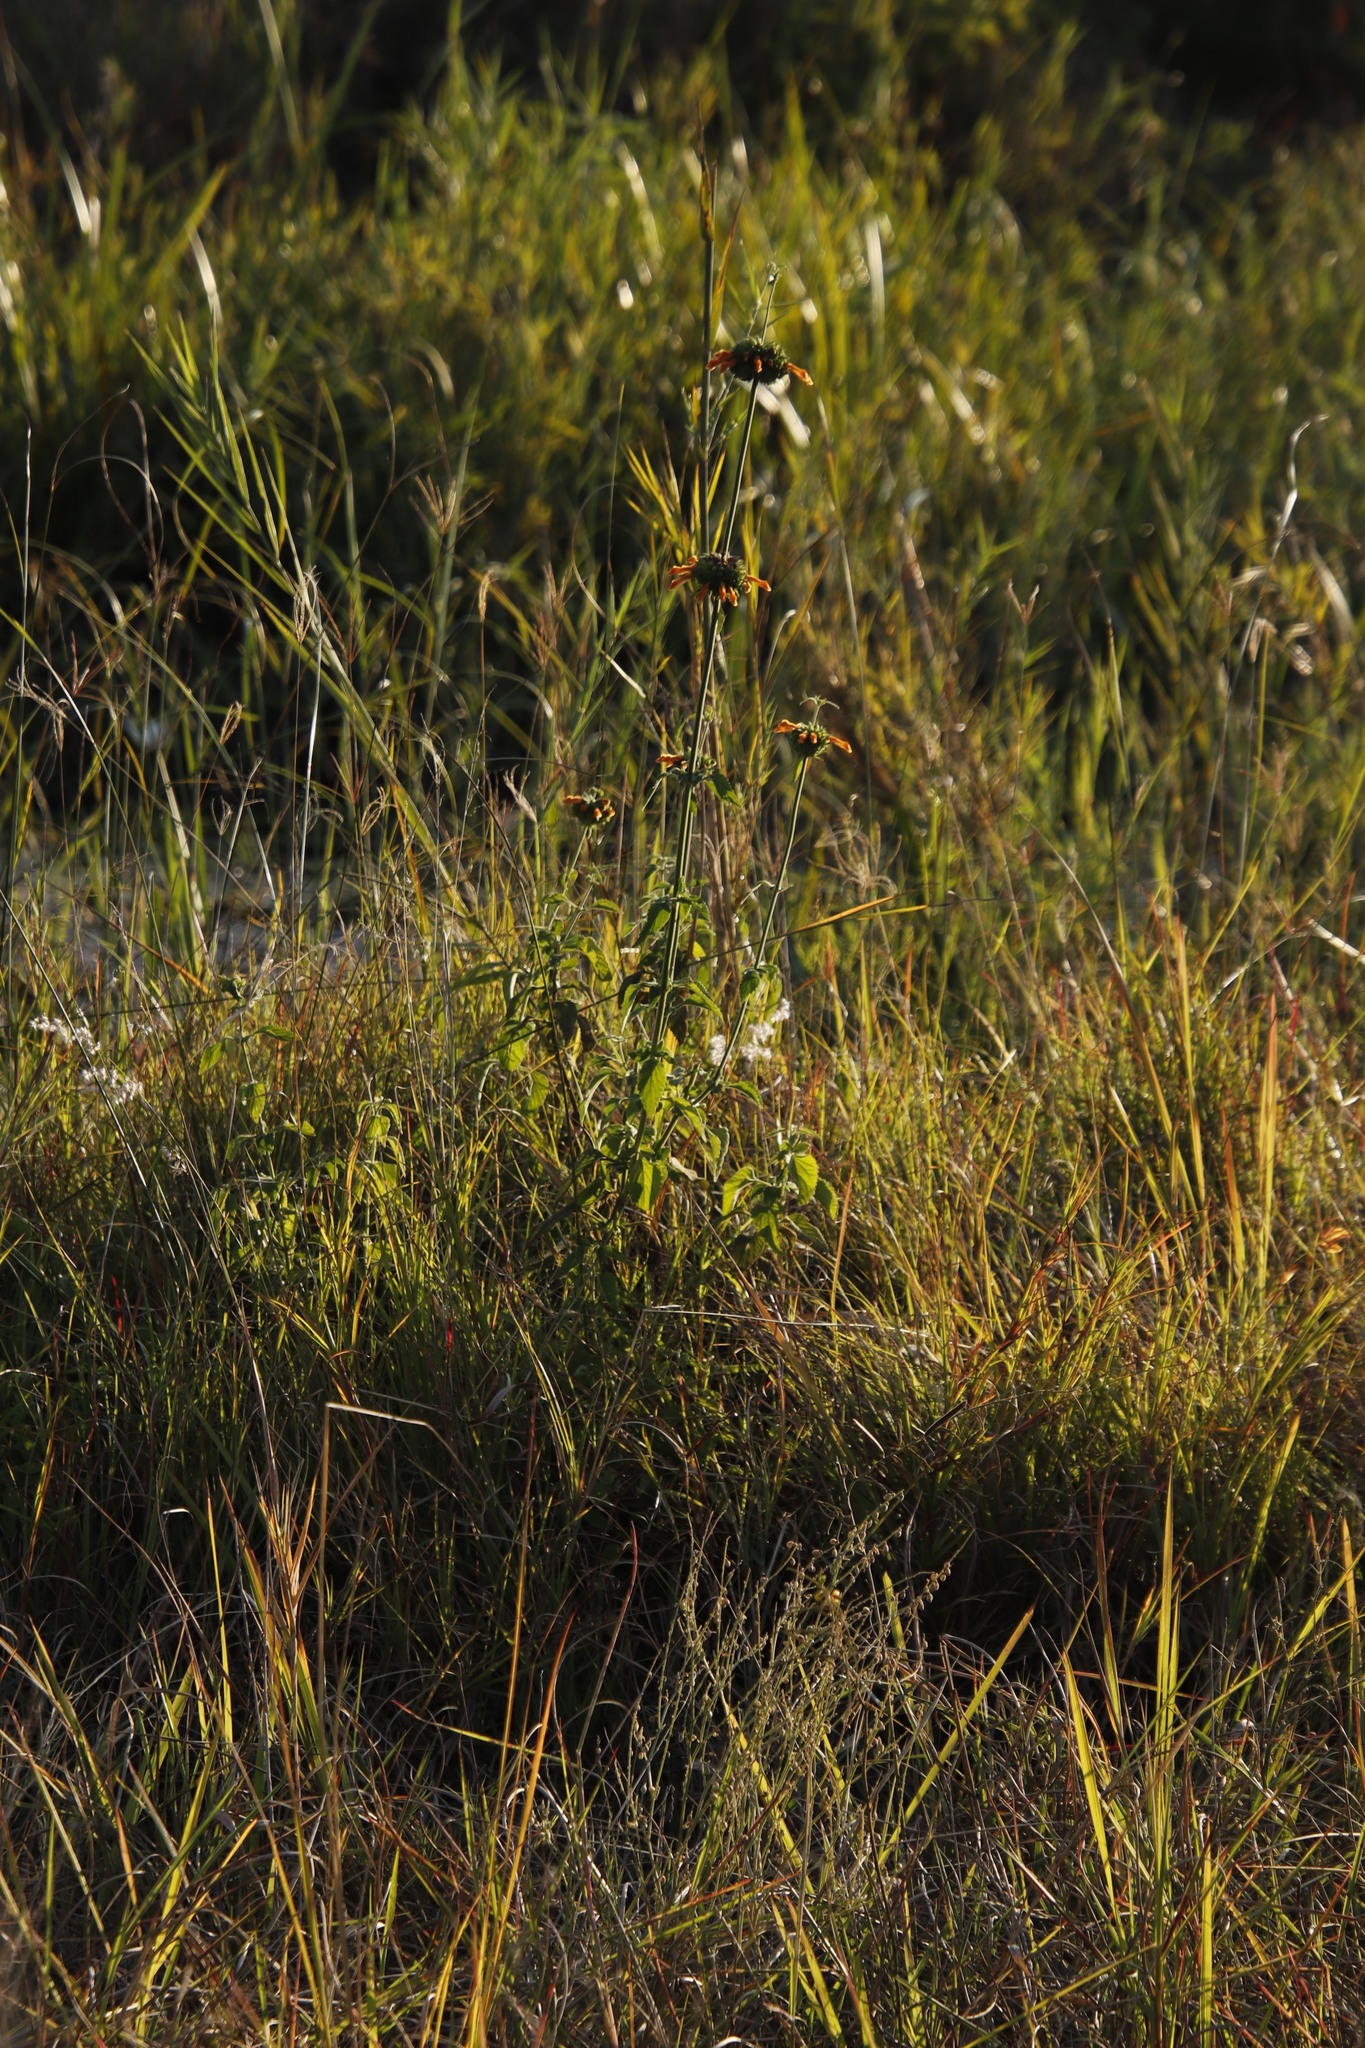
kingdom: Plantae
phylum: Tracheophyta
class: Magnoliopsida
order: Lamiales
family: Lamiaceae
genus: Leonotis
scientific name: Leonotis ocymifolia
